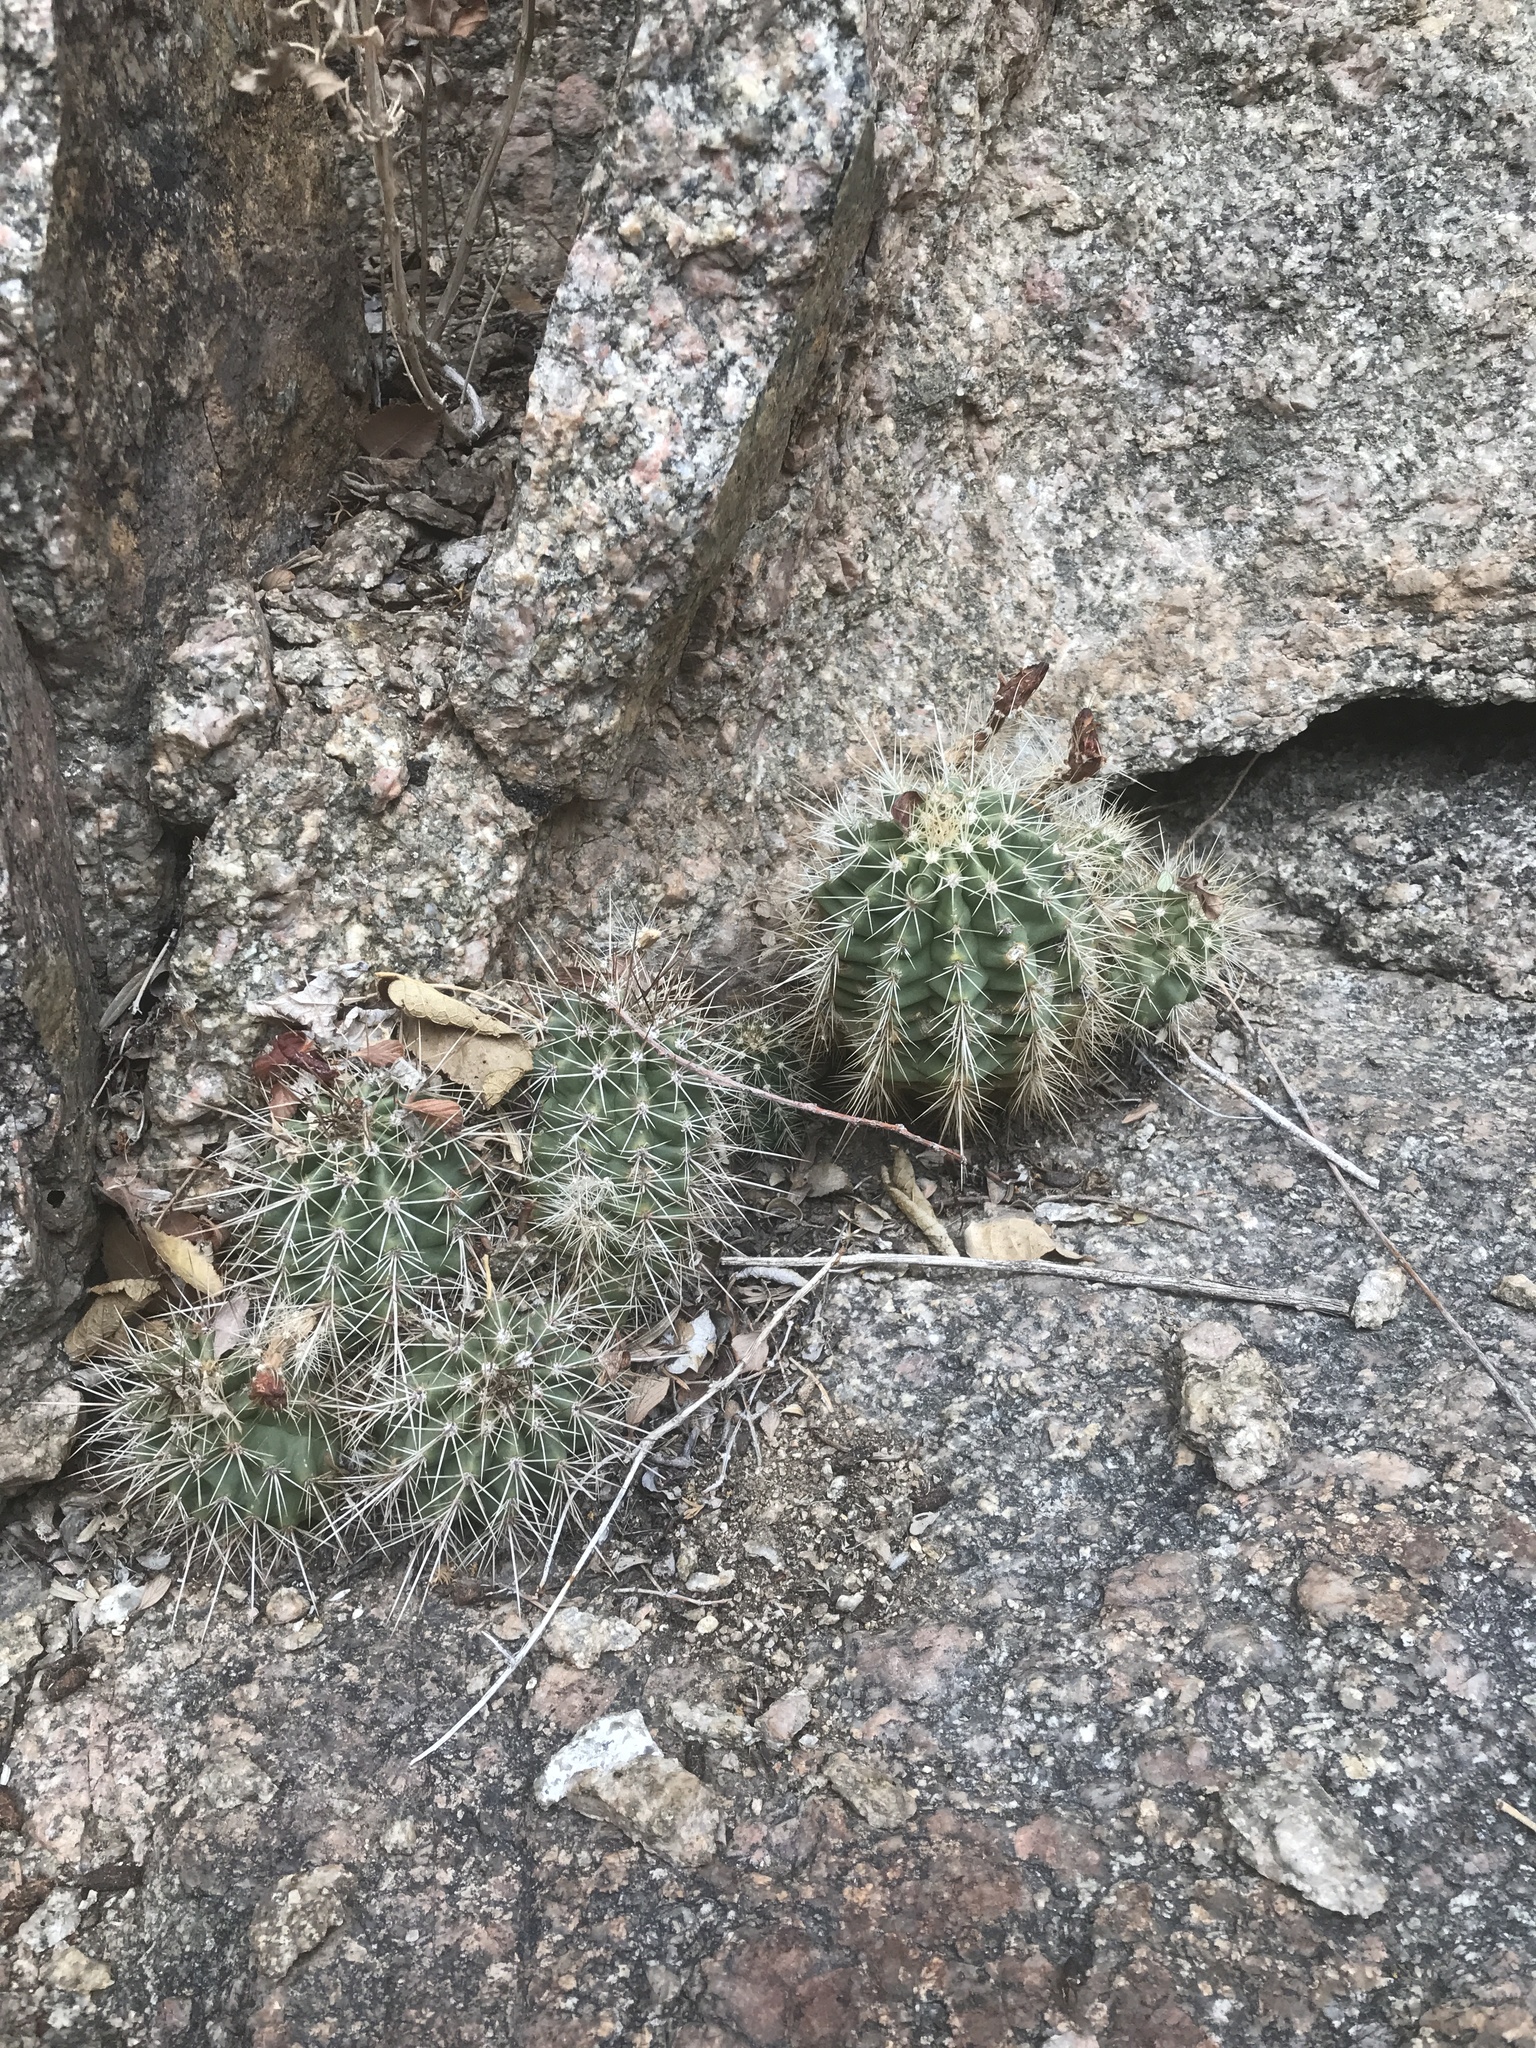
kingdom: Plantae
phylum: Tracheophyta
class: Magnoliopsida
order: Caryophyllales
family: Cactaceae
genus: Echinocereus
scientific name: Echinocereus coccineus
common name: Scarlet hedgehog cactus
